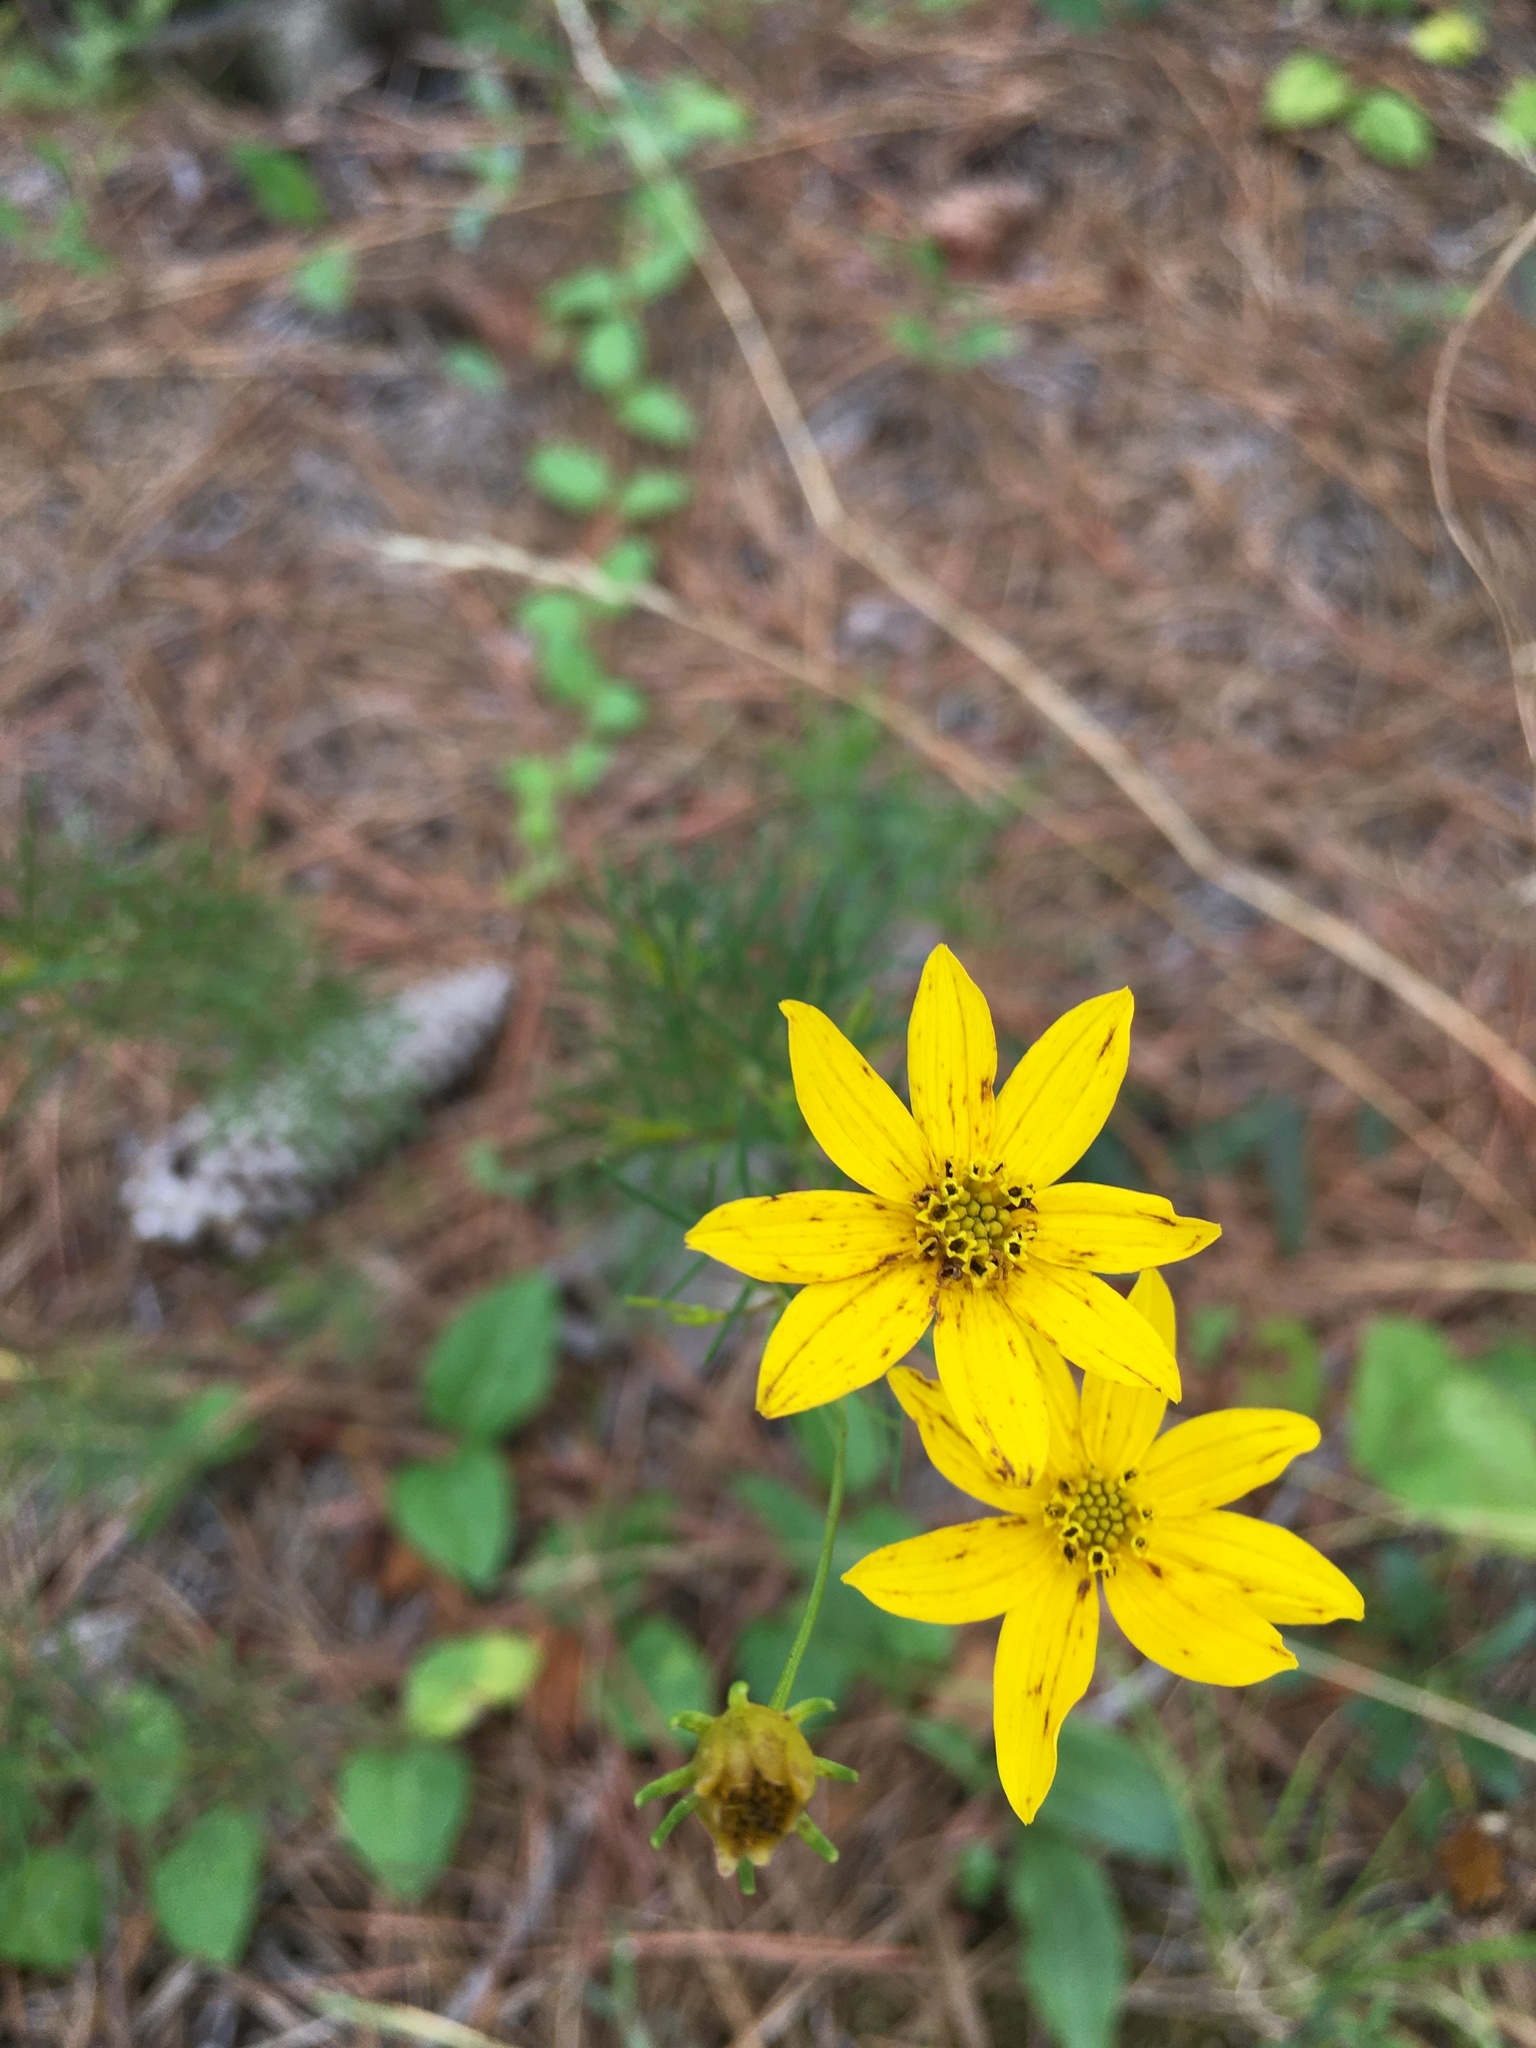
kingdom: Plantae
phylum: Tracheophyta
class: Magnoliopsida
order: Asterales
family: Asteraceae
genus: Coreopsis
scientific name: Coreopsis verticillata
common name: Whorled tickseed
